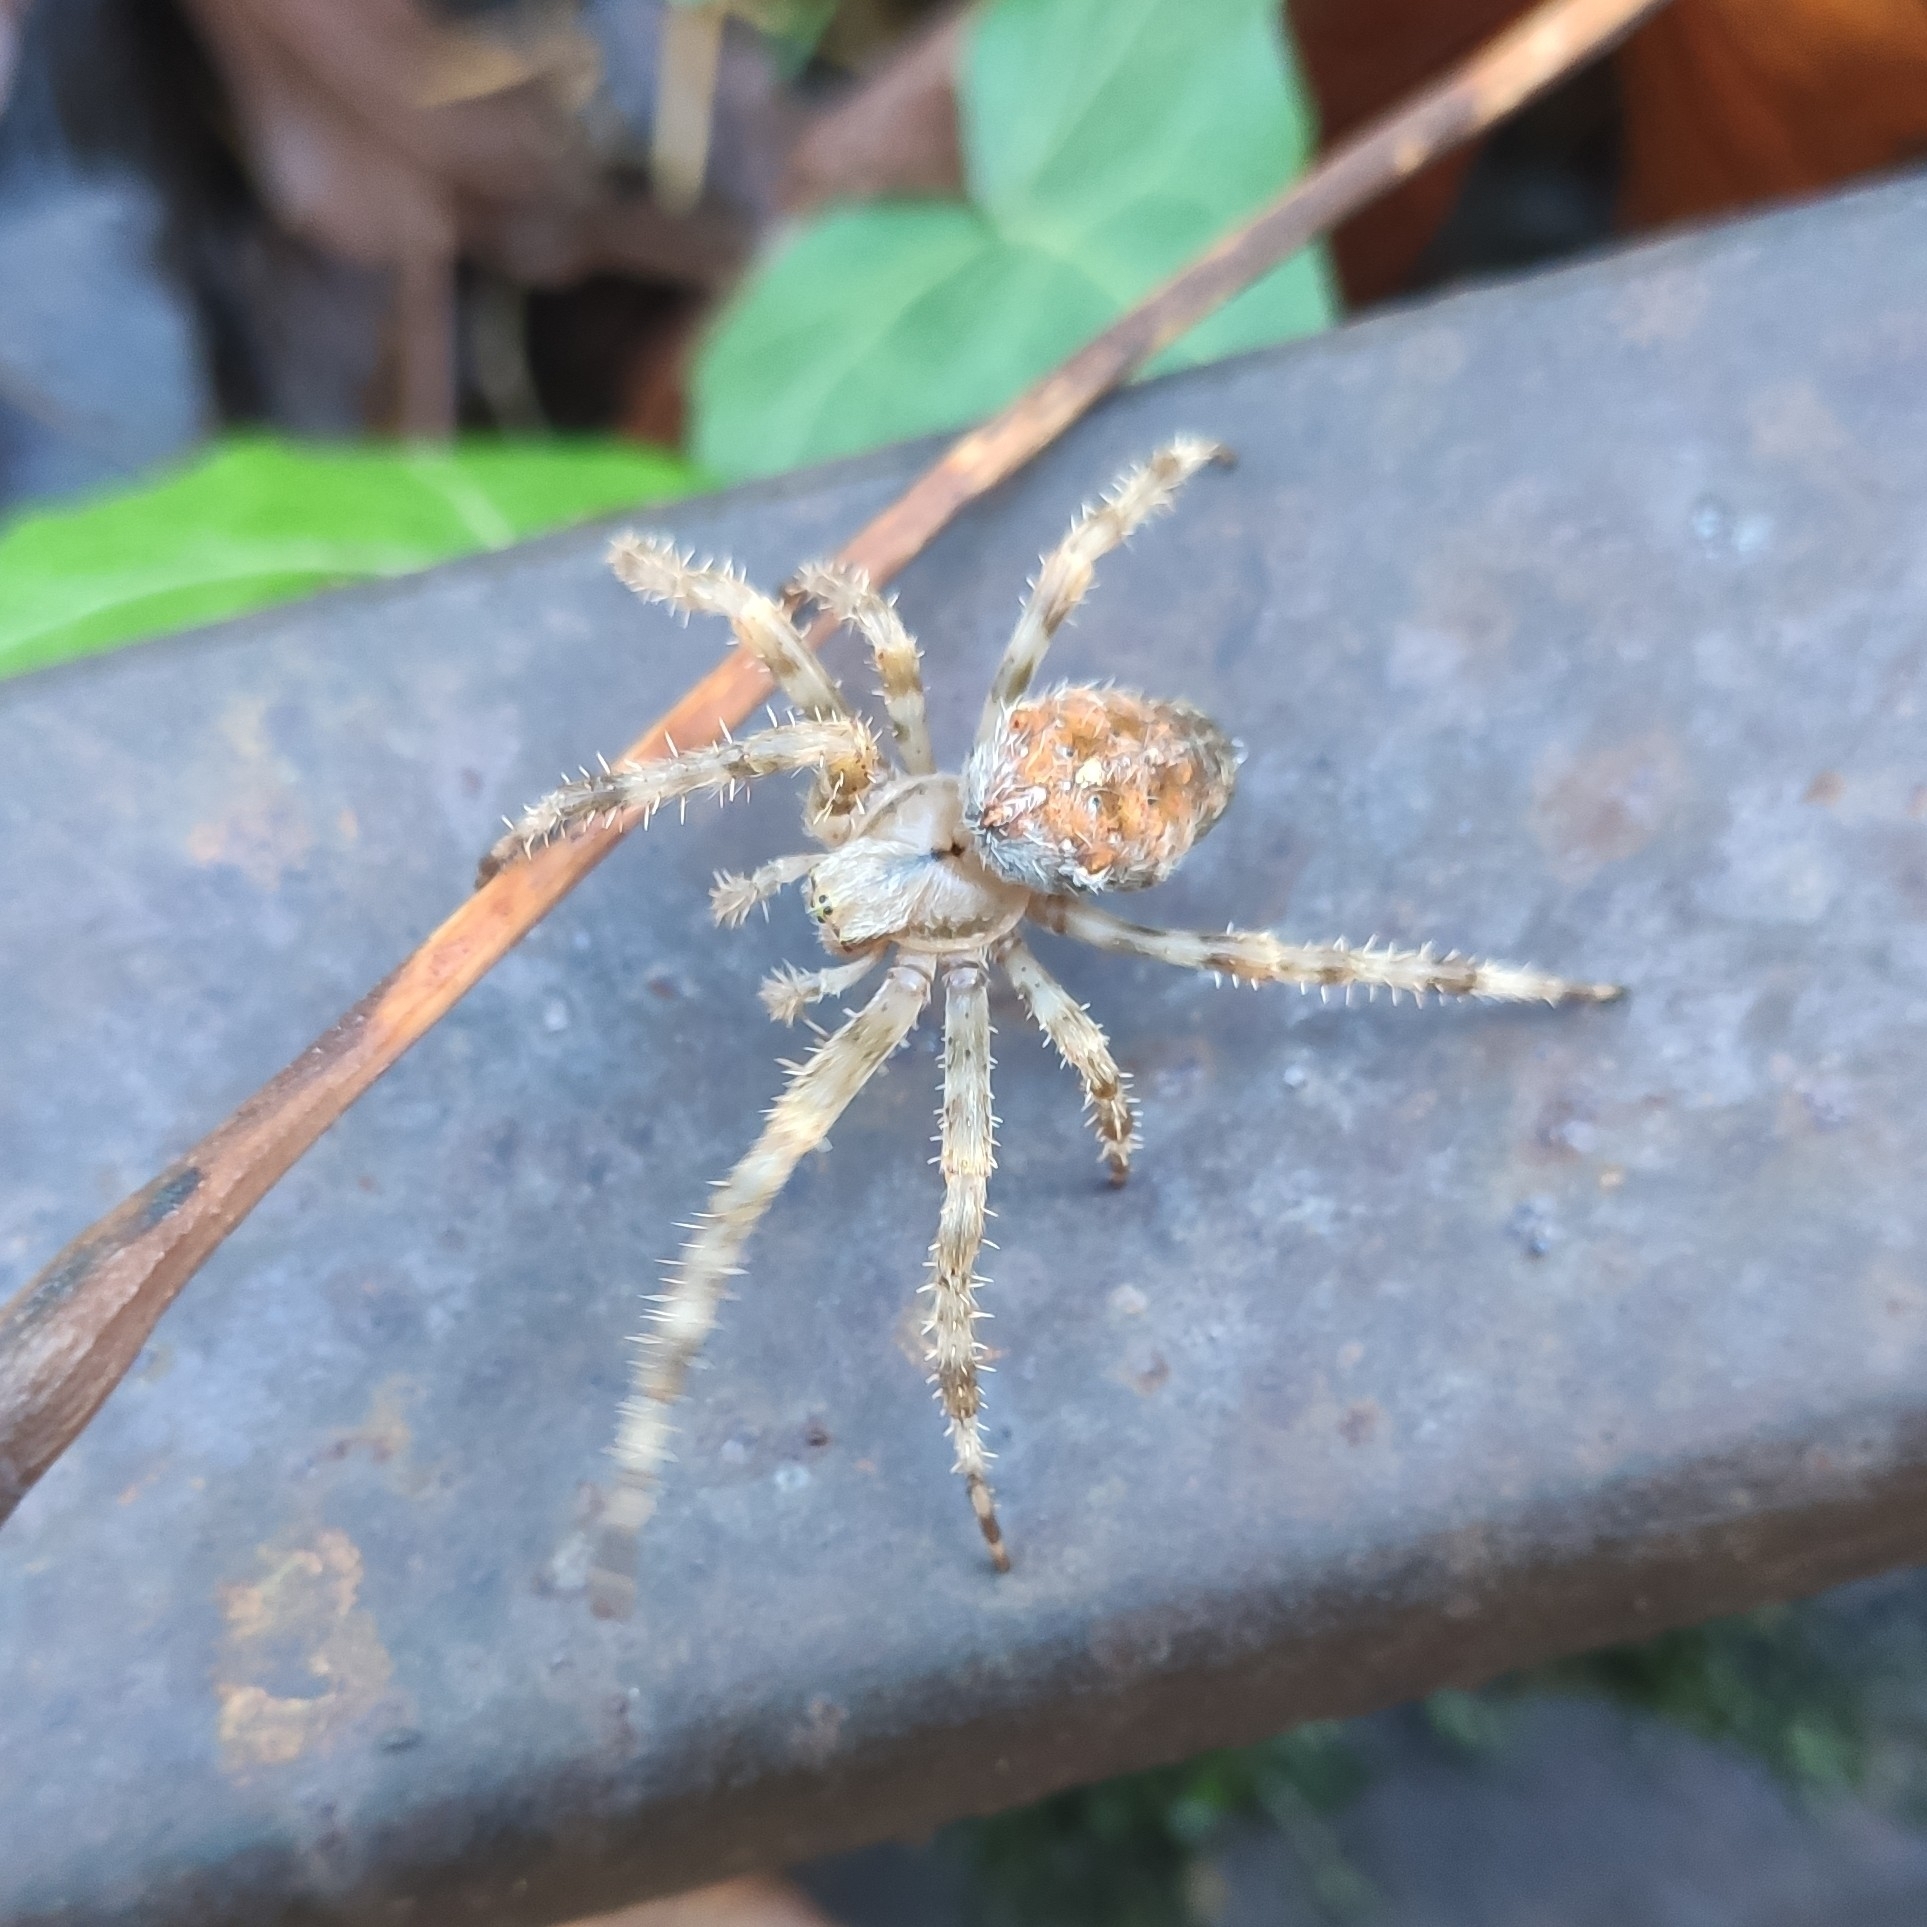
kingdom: Animalia
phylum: Arthropoda
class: Arachnida
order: Araneae
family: Araneidae
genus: Araneus
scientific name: Araneus diadematus
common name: Cross orbweaver
